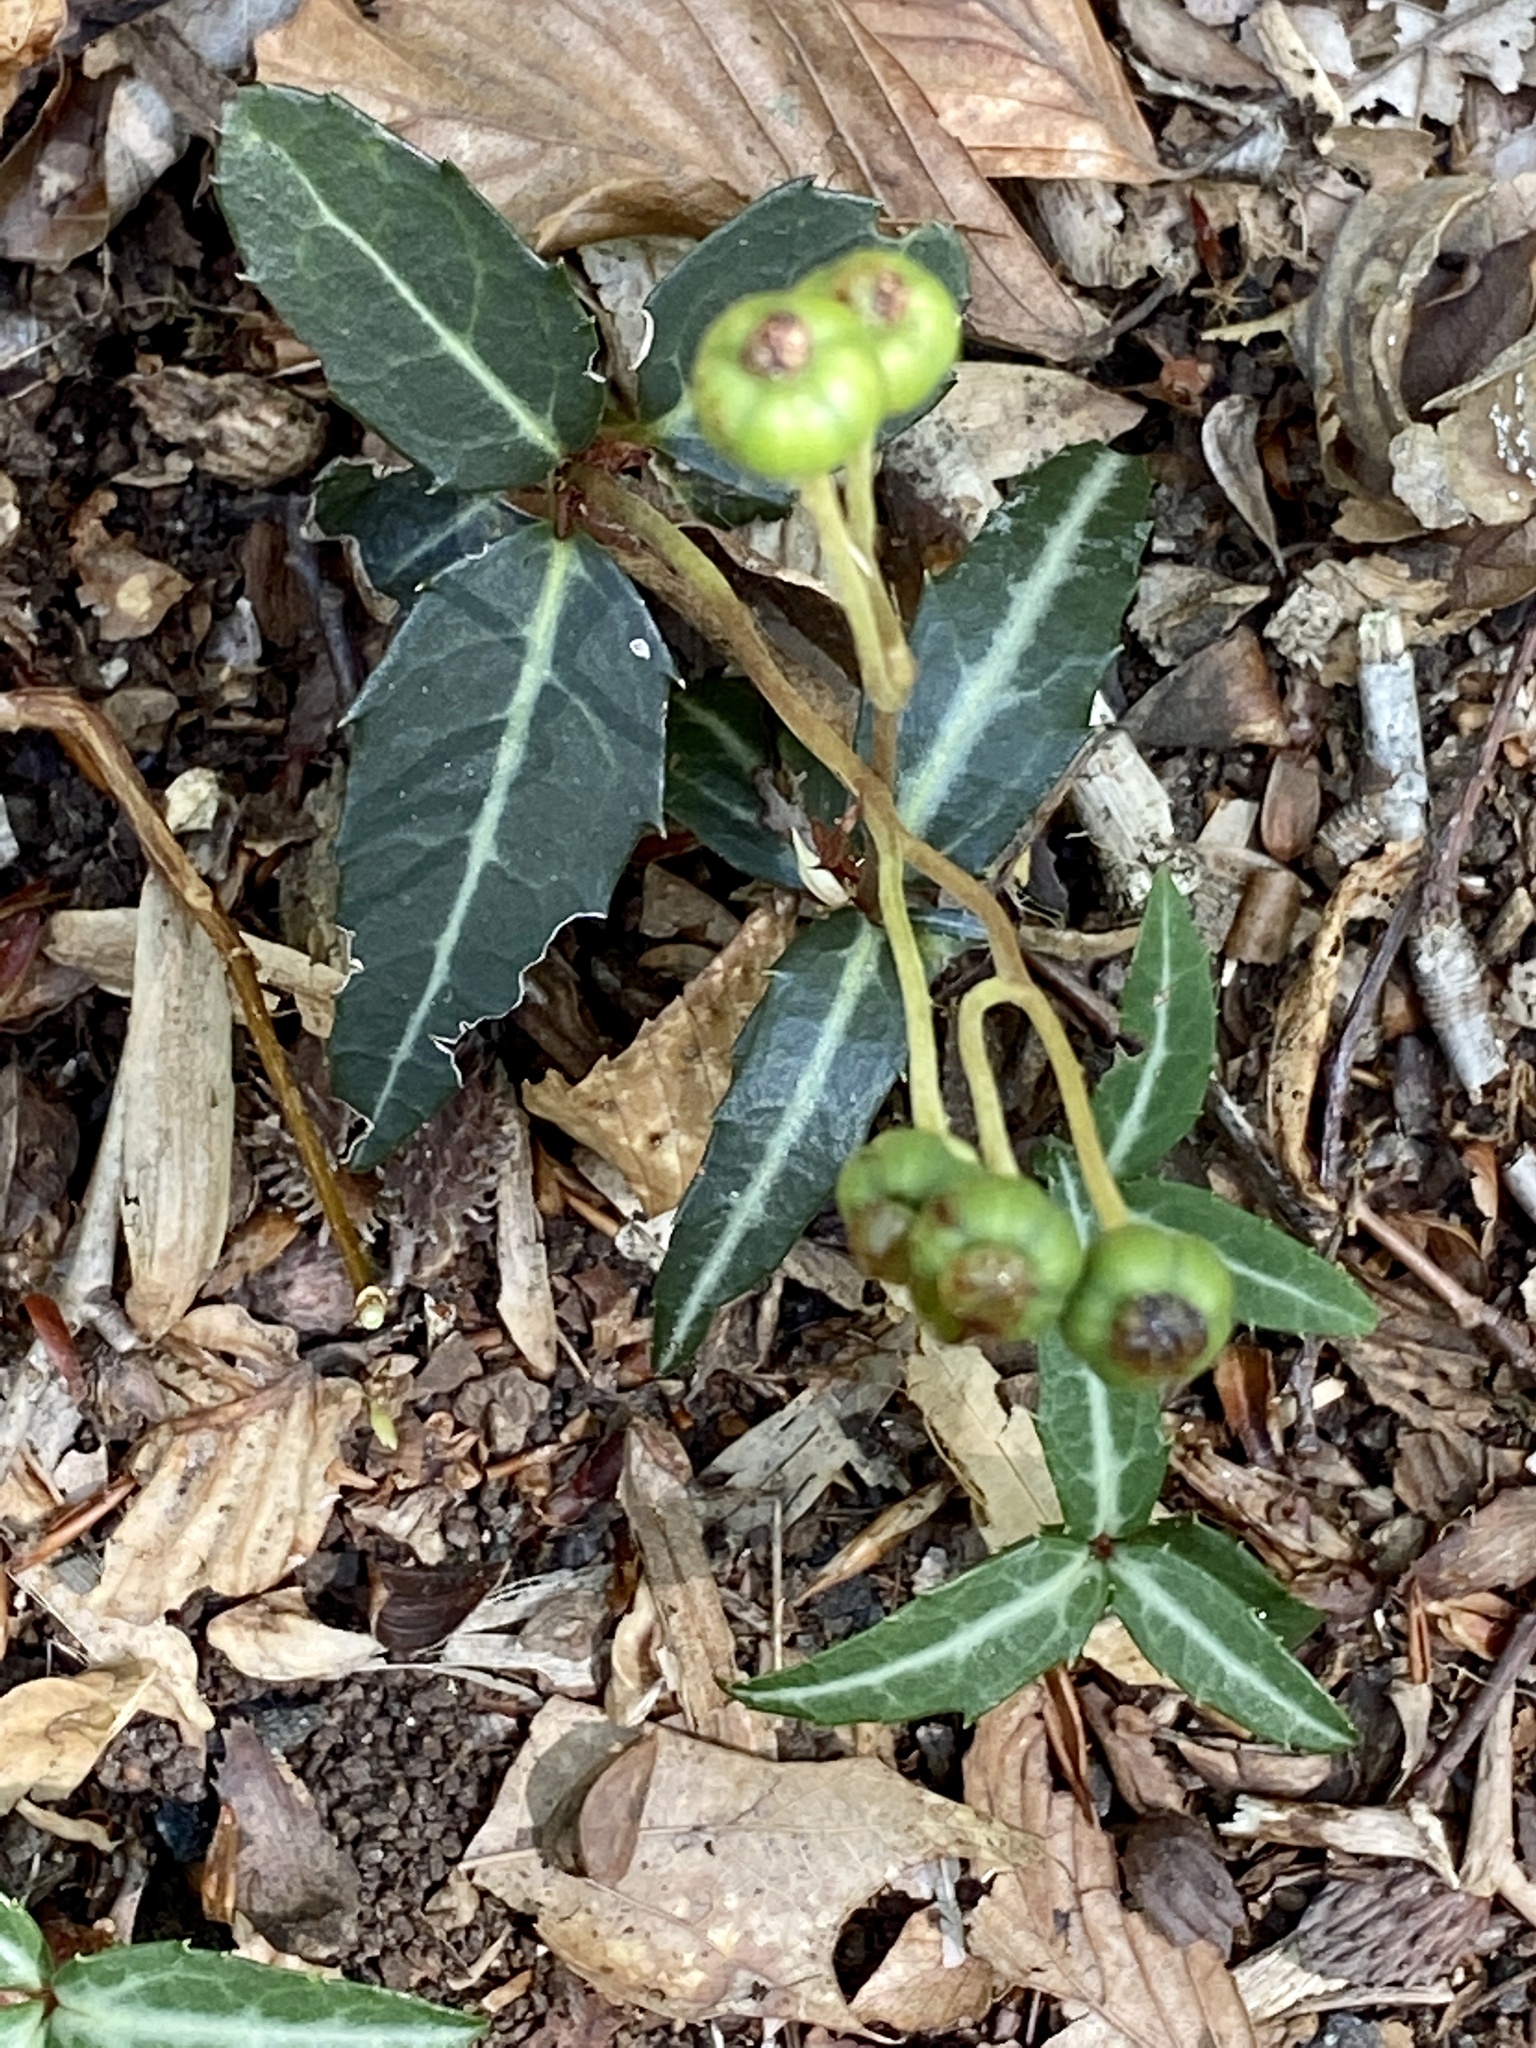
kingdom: Plantae
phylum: Tracheophyta
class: Magnoliopsida
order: Ericales
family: Ericaceae
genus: Chimaphila
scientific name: Chimaphila maculata
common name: Spotted pipsissewa
